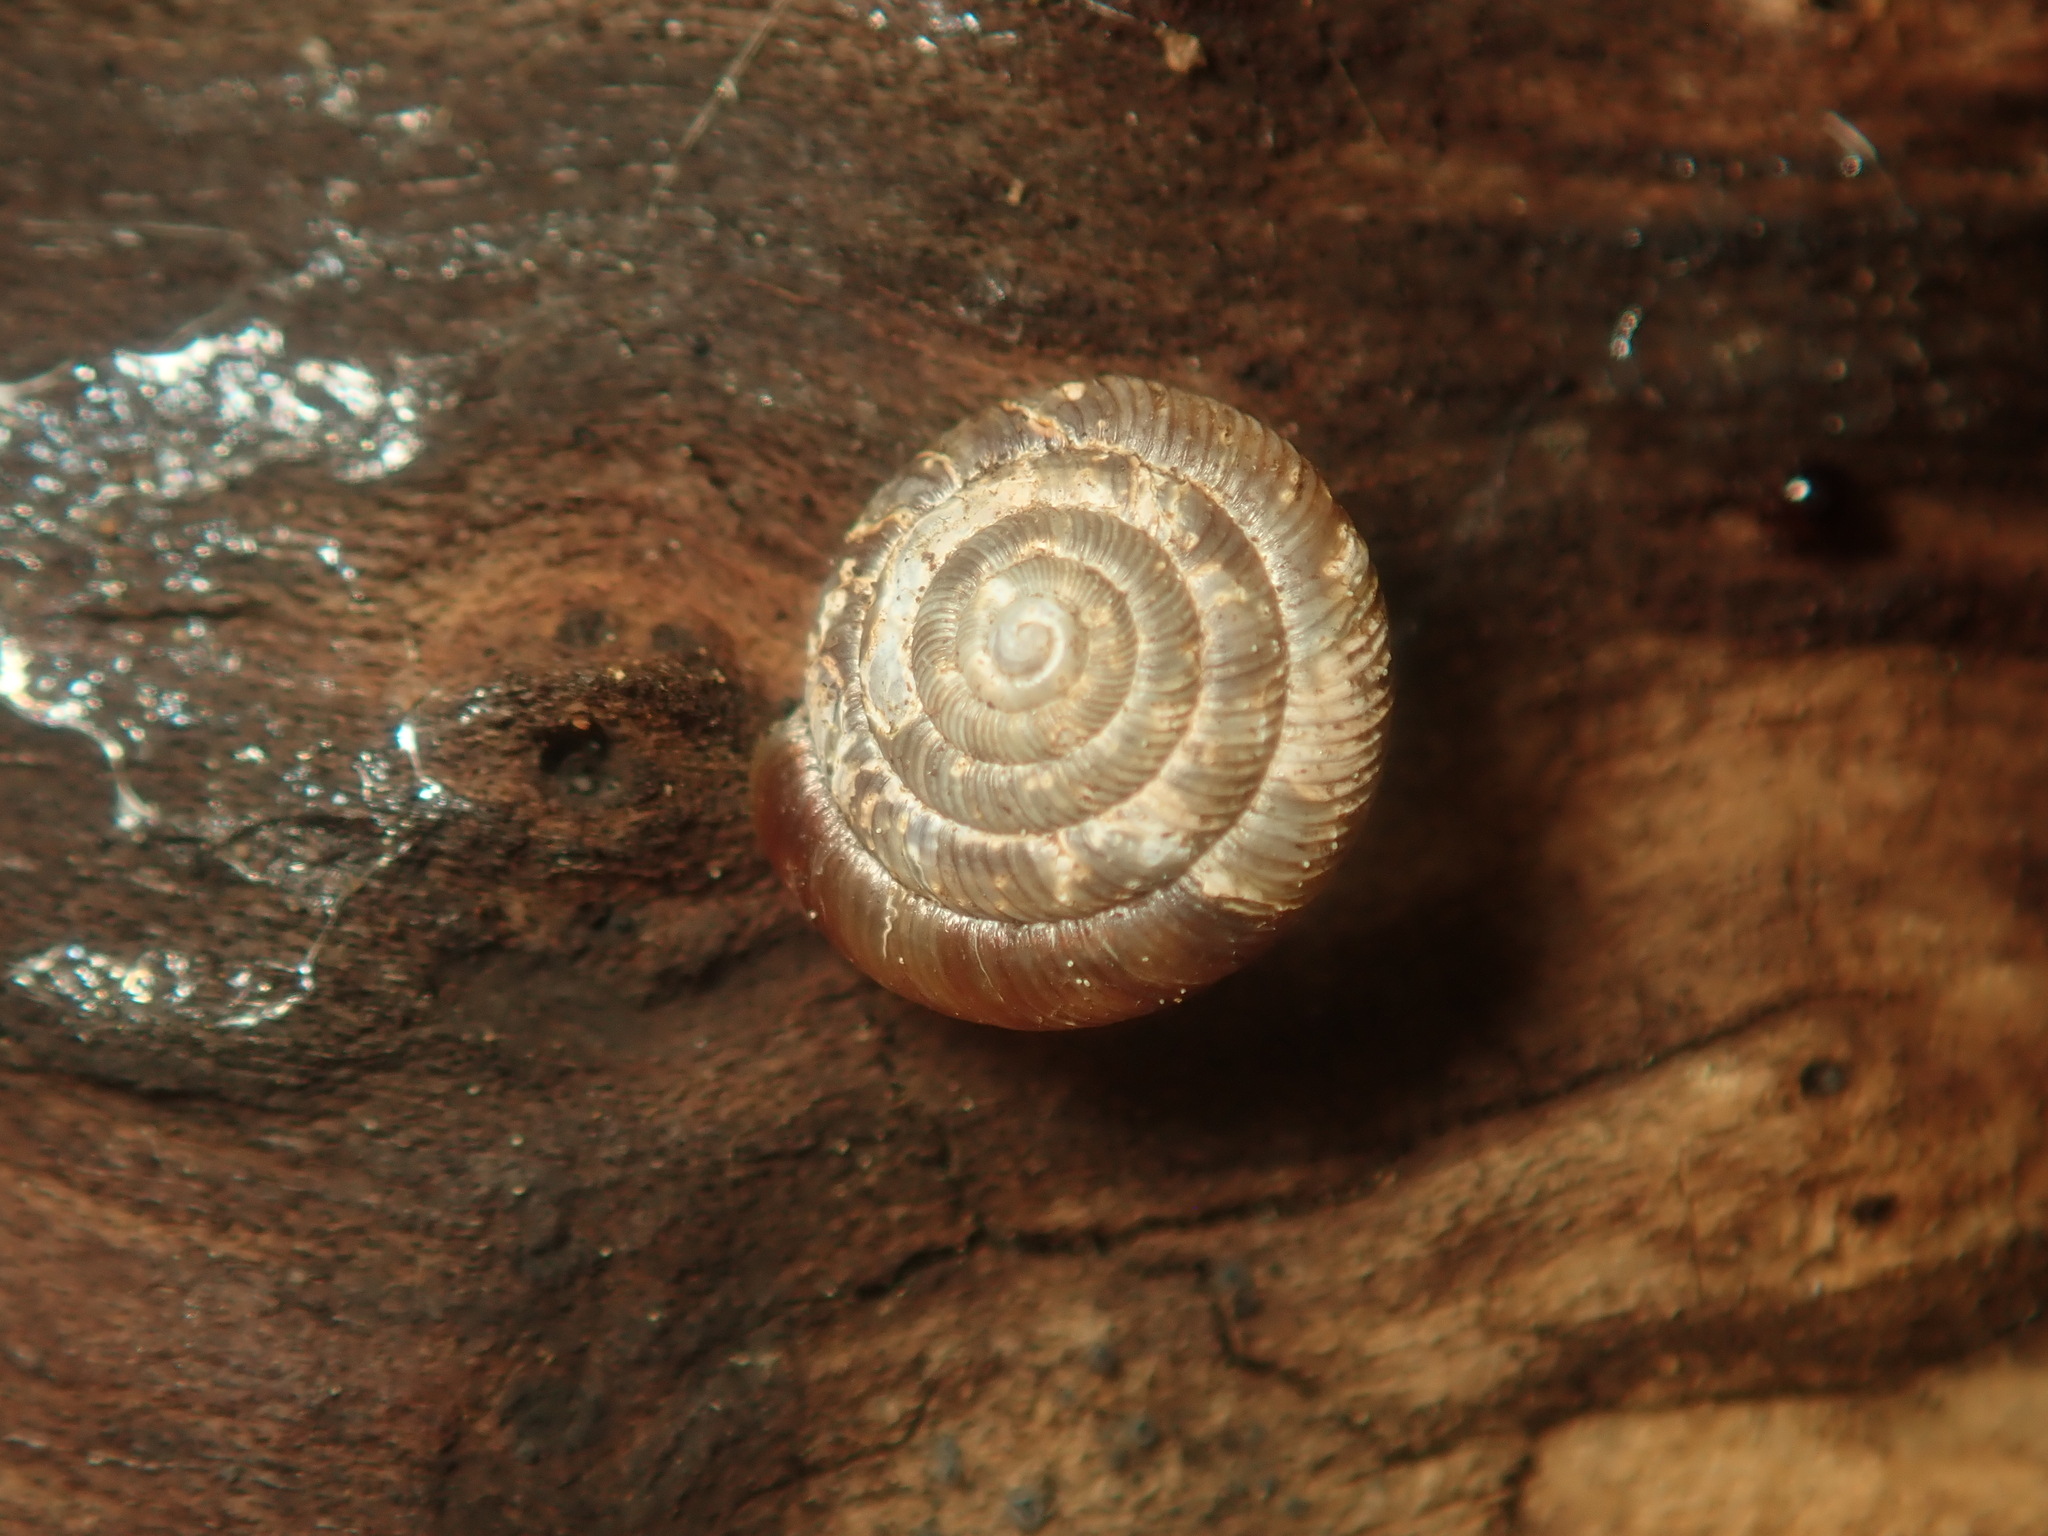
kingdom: Animalia
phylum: Mollusca
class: Gastropoda
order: Stylommatophora
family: Discidae
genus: Discus
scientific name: Discus rotundatus
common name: Rounded snail
